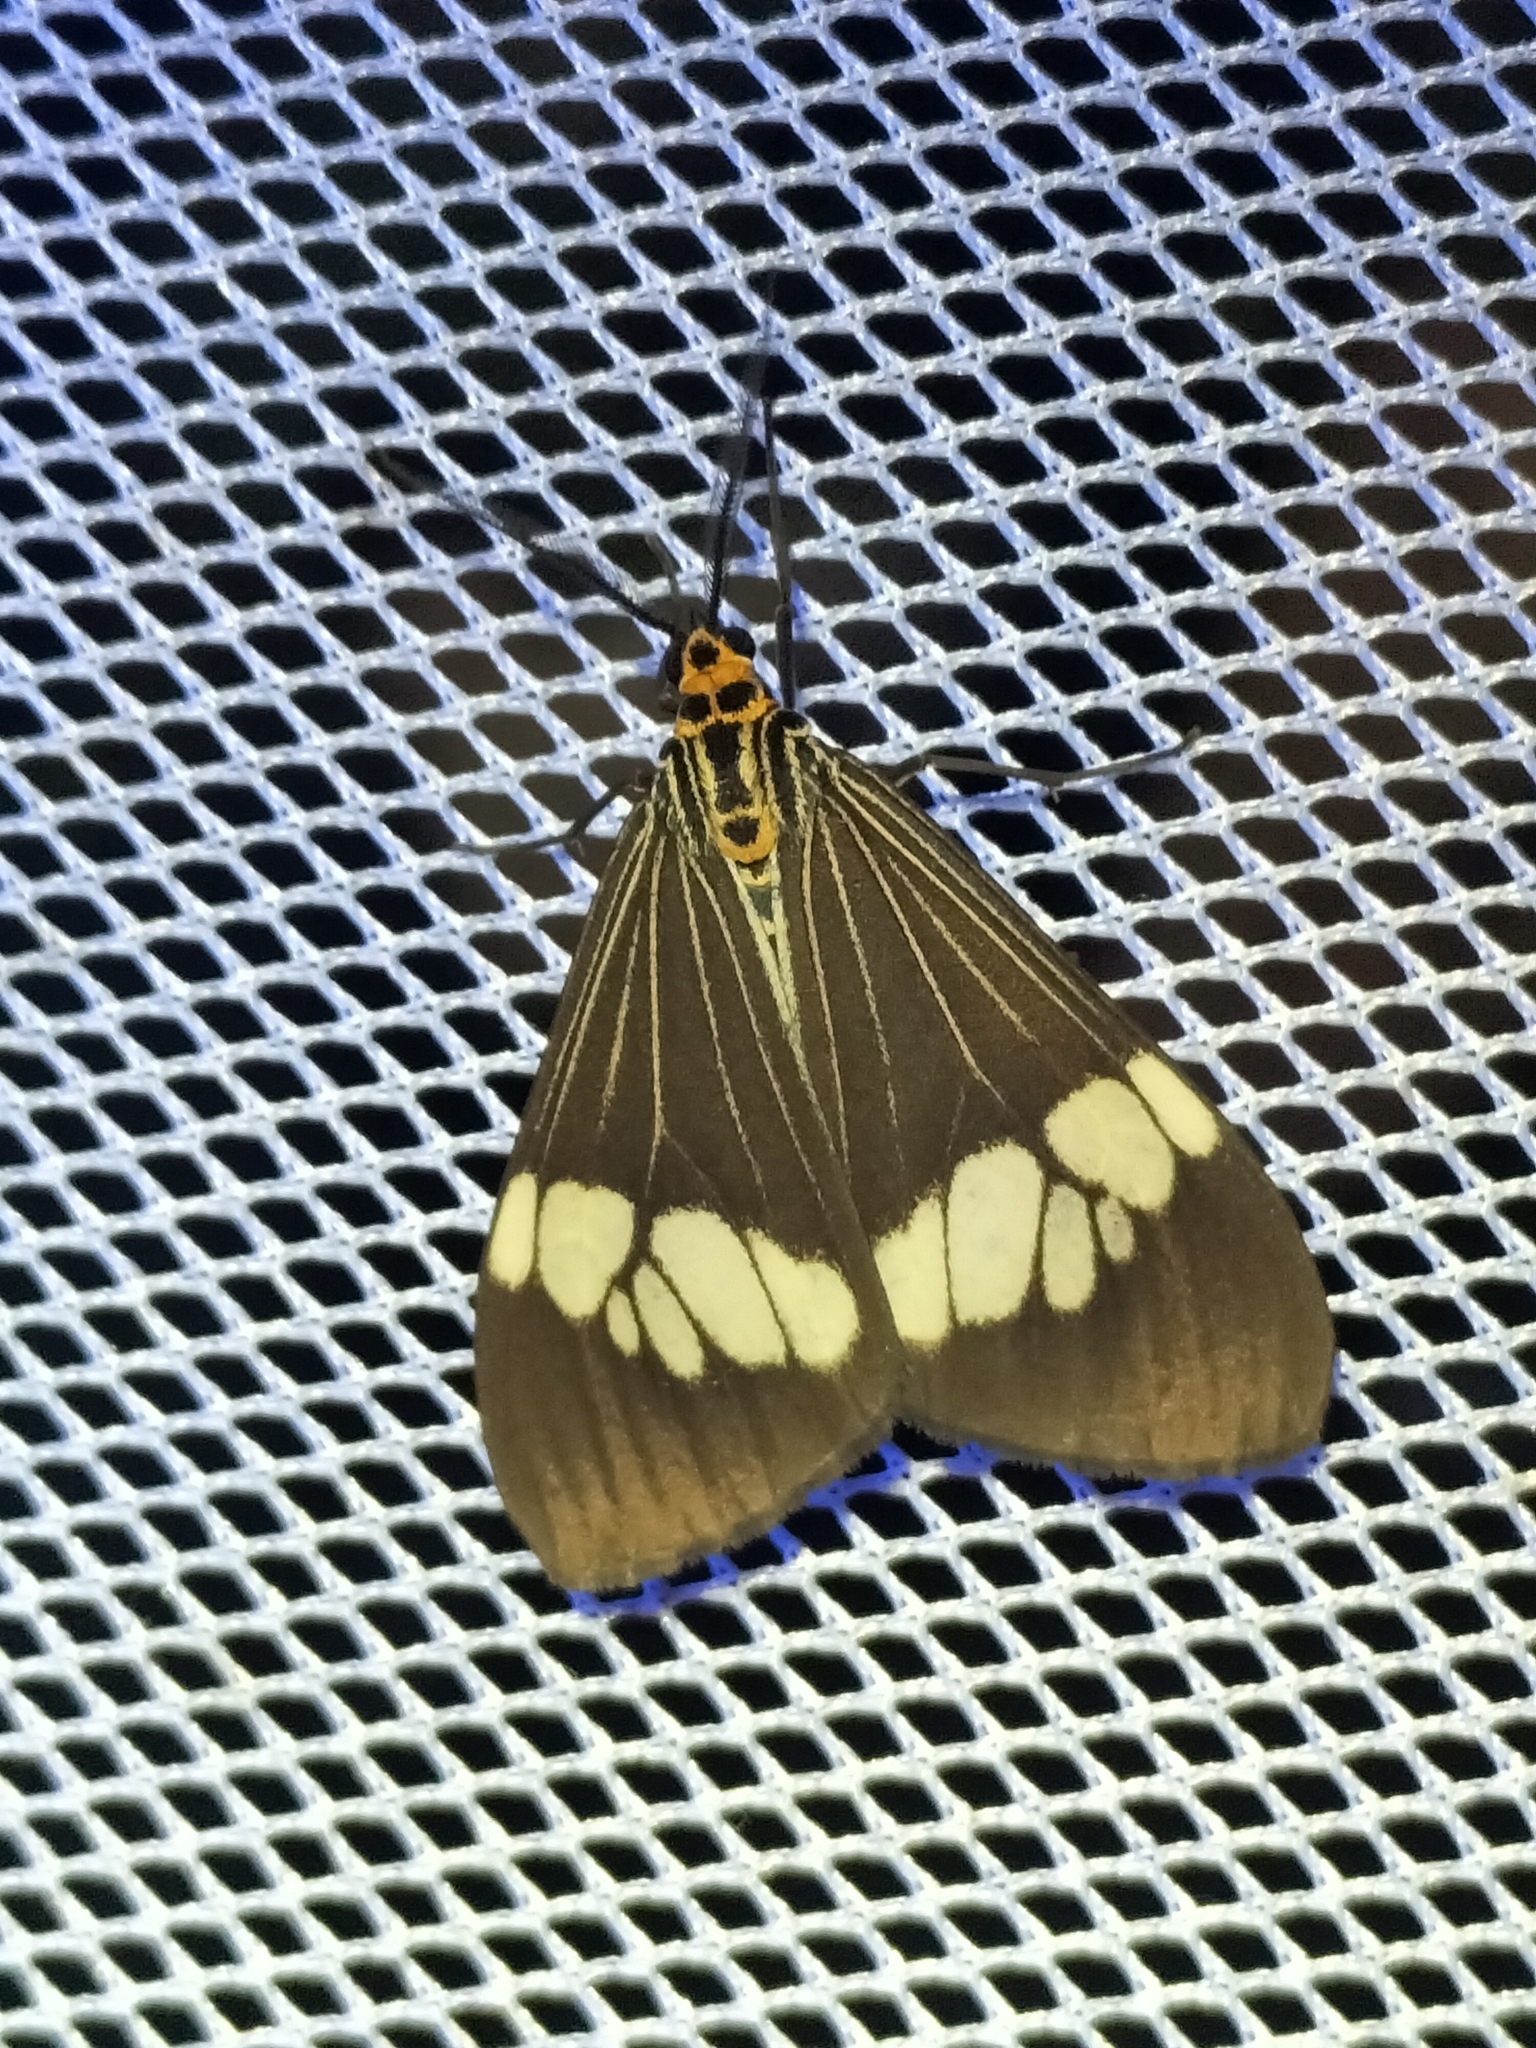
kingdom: Animalia
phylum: Arthropoda
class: Insecta
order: Lepidoptera
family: Erebidae
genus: Nyctemera
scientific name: Nyctemera baulus
